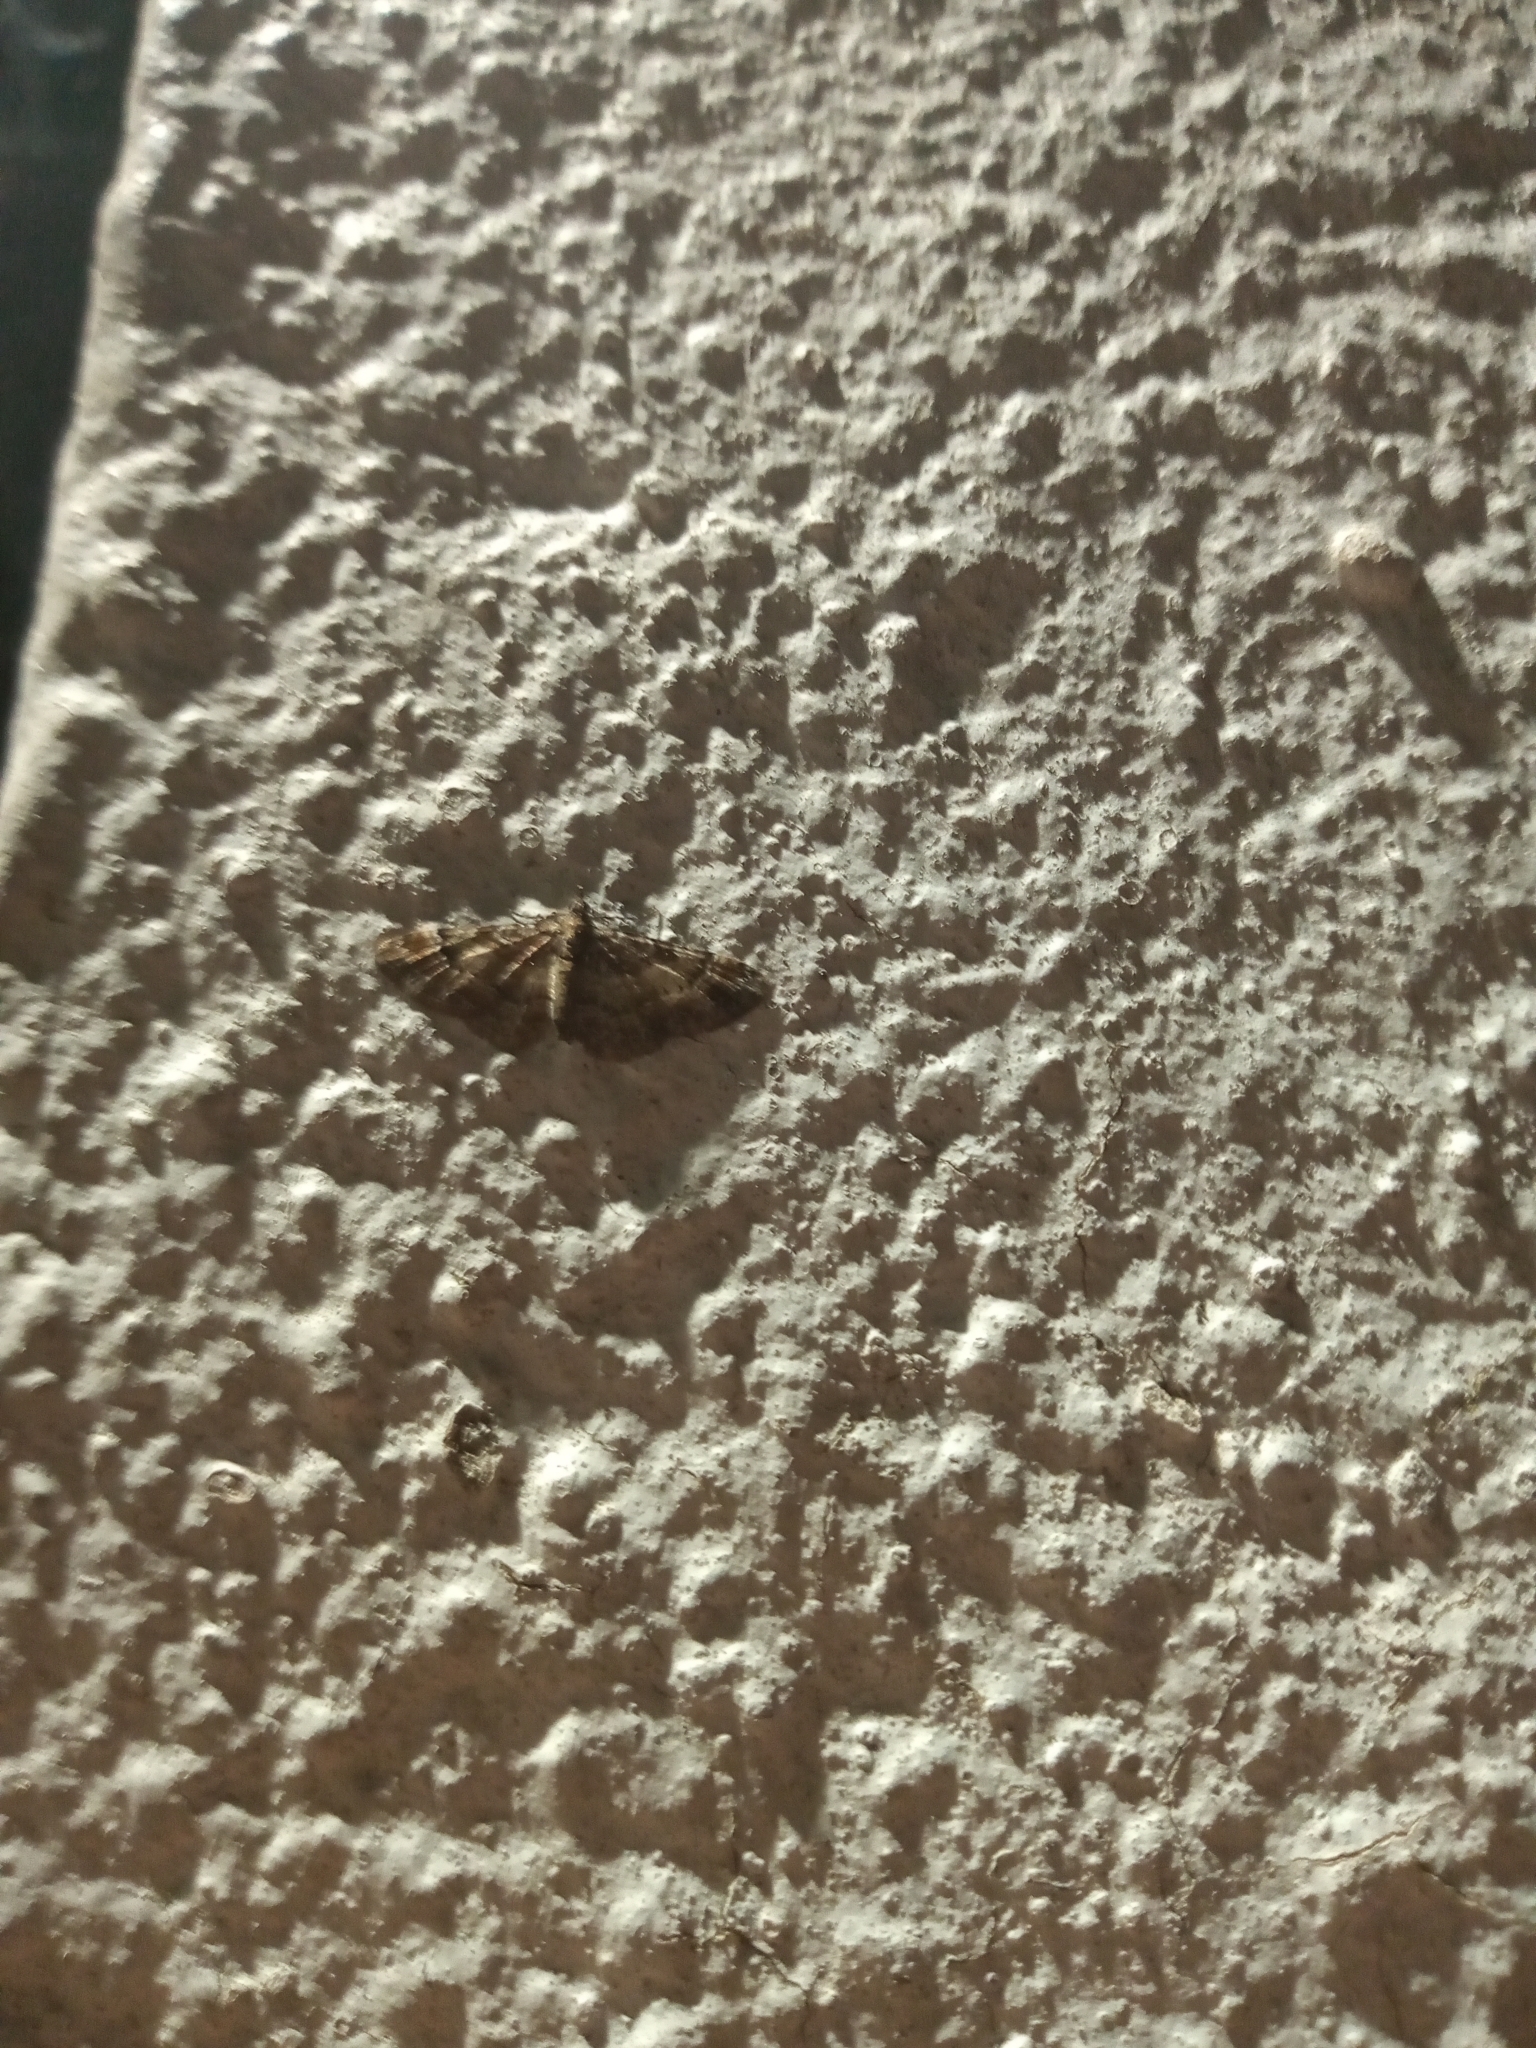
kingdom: Animalia
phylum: Arthropoda
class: Insecta
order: Lepidoptera
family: Geometridae
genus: Gymnoscelis
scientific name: Gymnoscelis rufifasciata
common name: Double-striped pug
